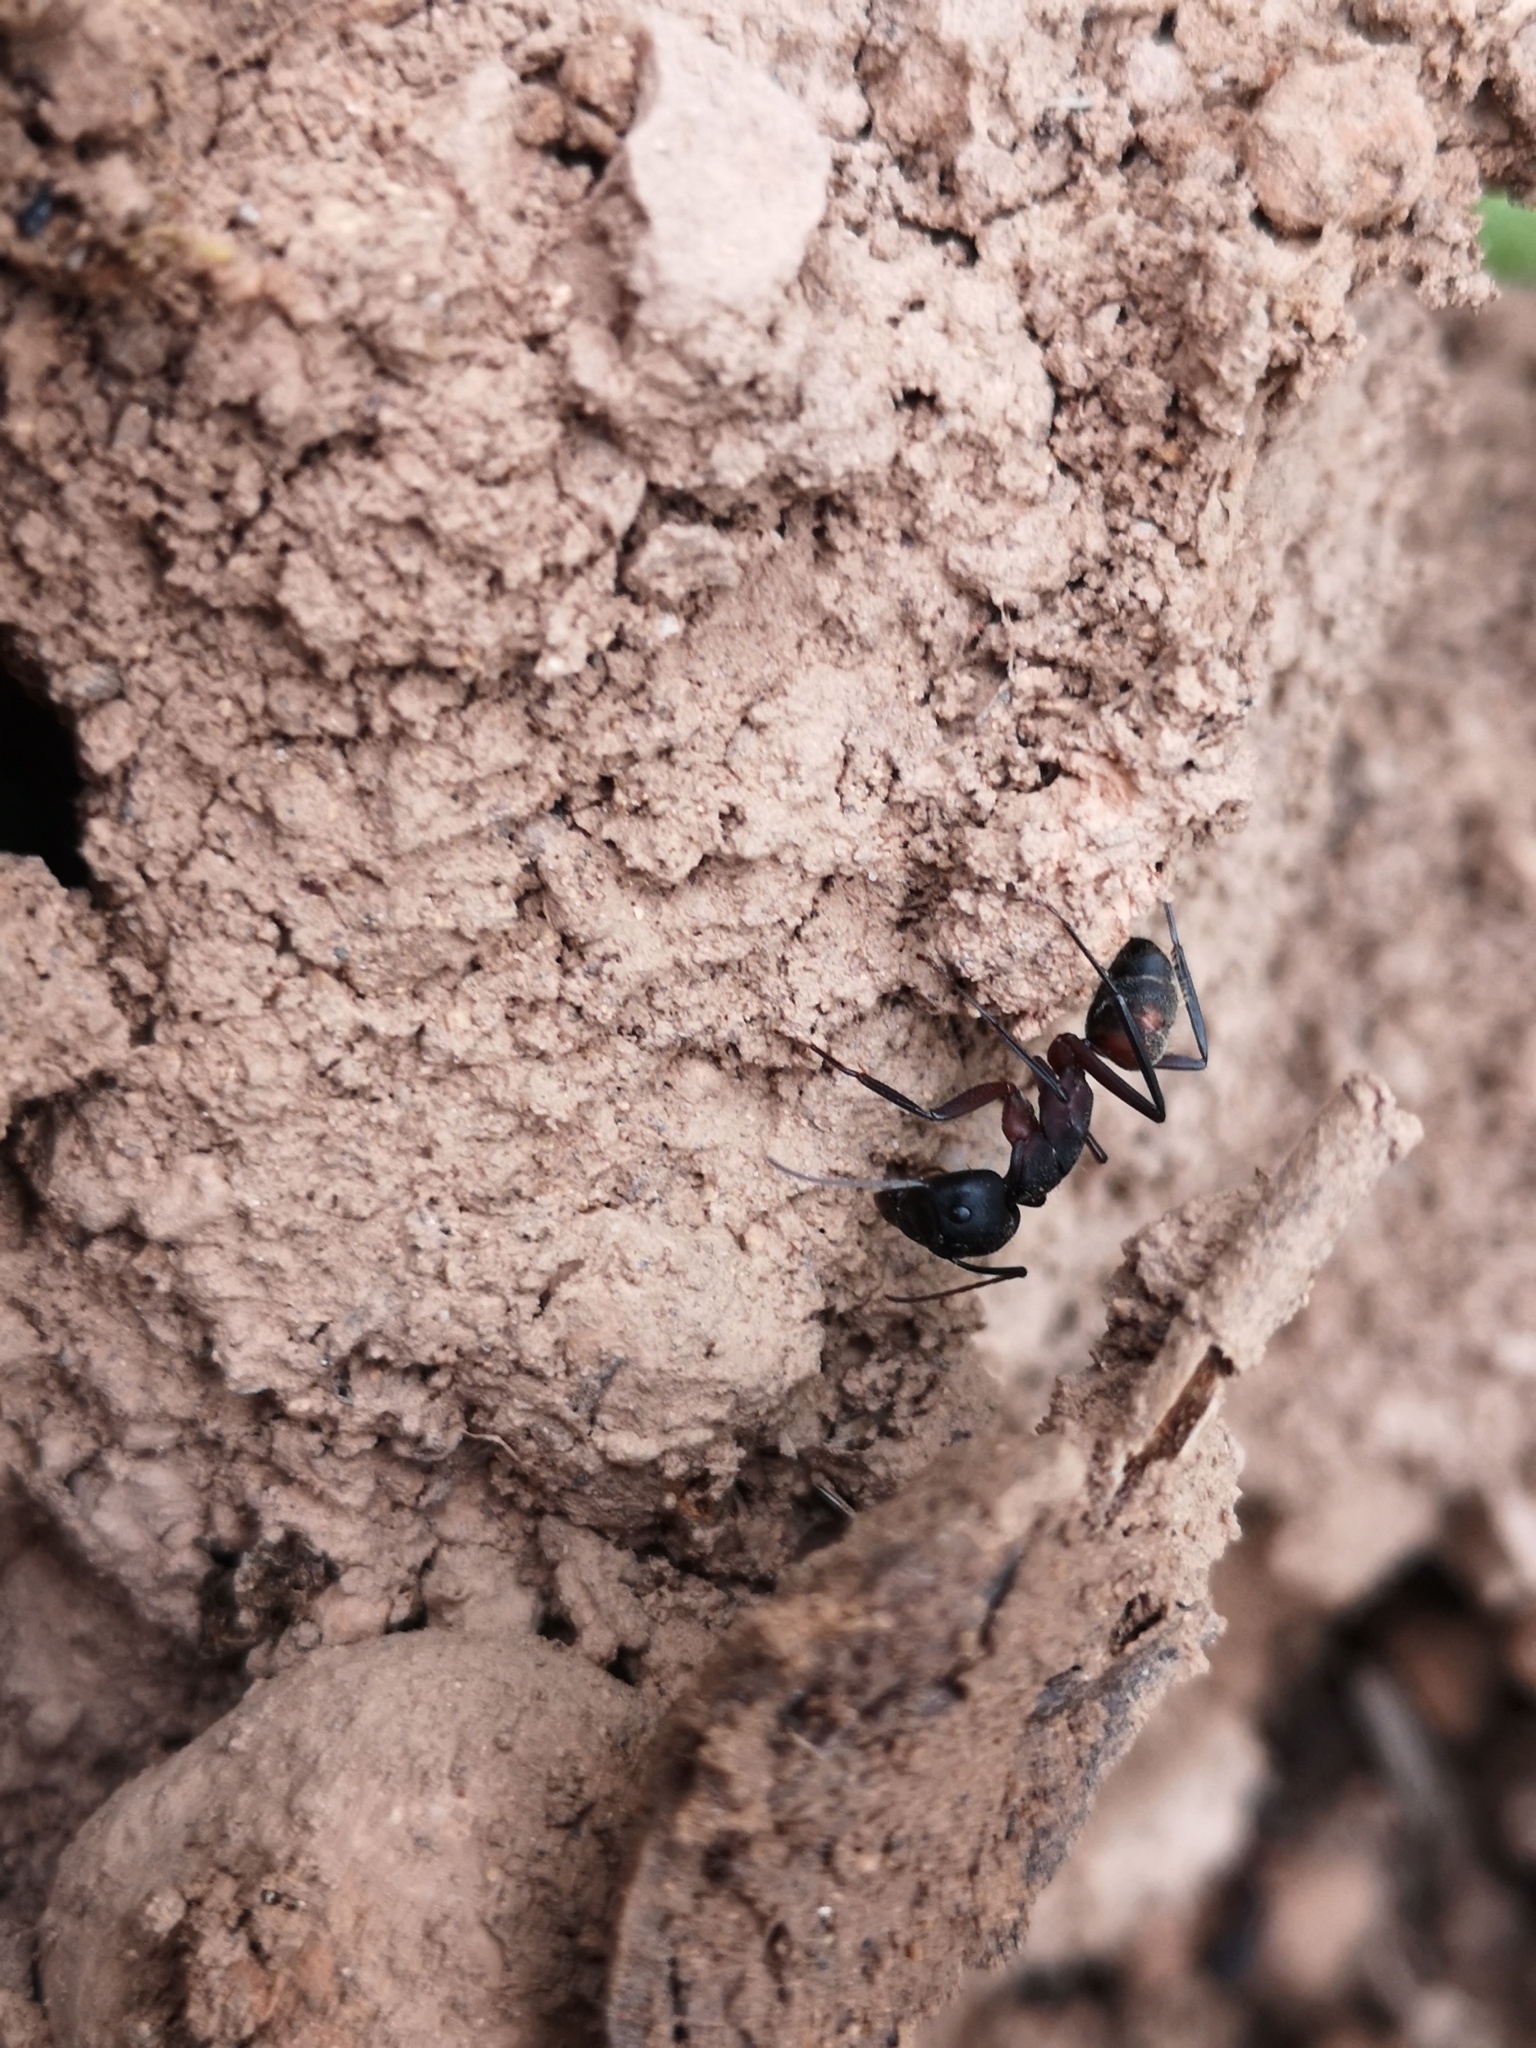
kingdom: Animalia
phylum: Arthropoda
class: Insecta
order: Hymenoptera
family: Formicidae
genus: Camponotus
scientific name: Camponotus cruentatus
